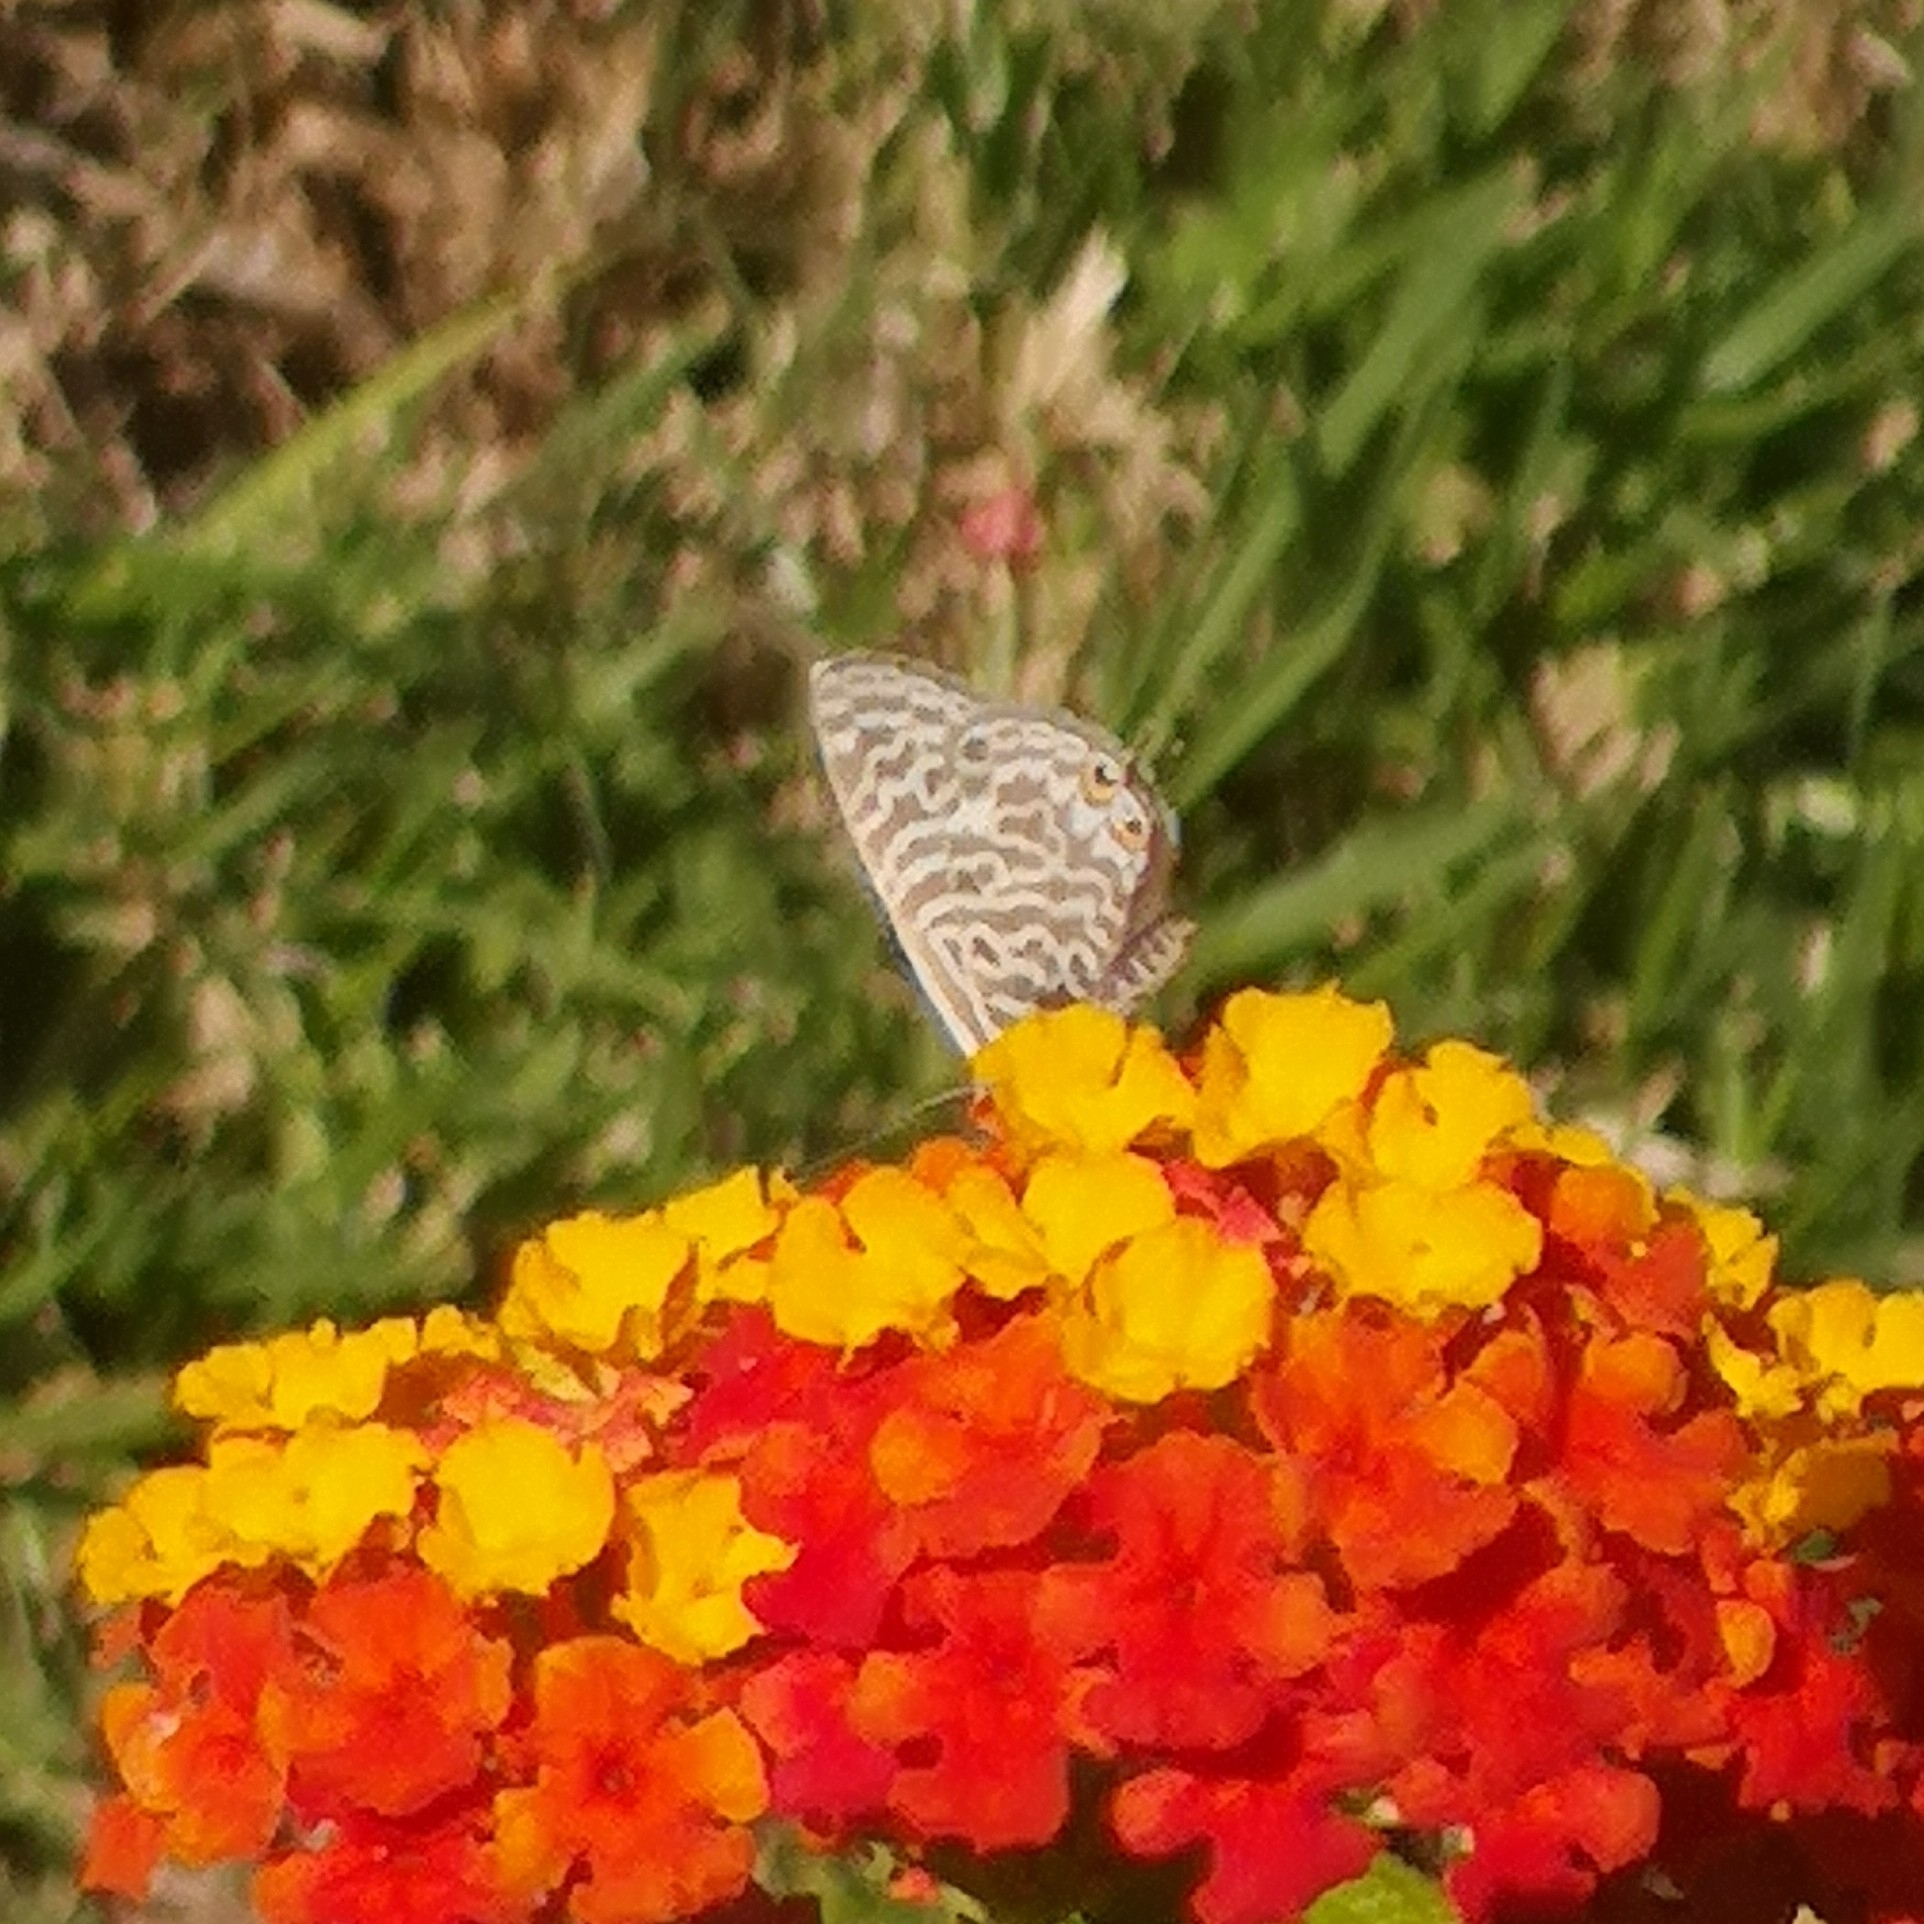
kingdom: Animalia
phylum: Arthropoda
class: Insecta
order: Lepidoptera
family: Lycaenidae
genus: Leptotes
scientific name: Leptotes pirithous
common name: Lang's short-tailed blue
